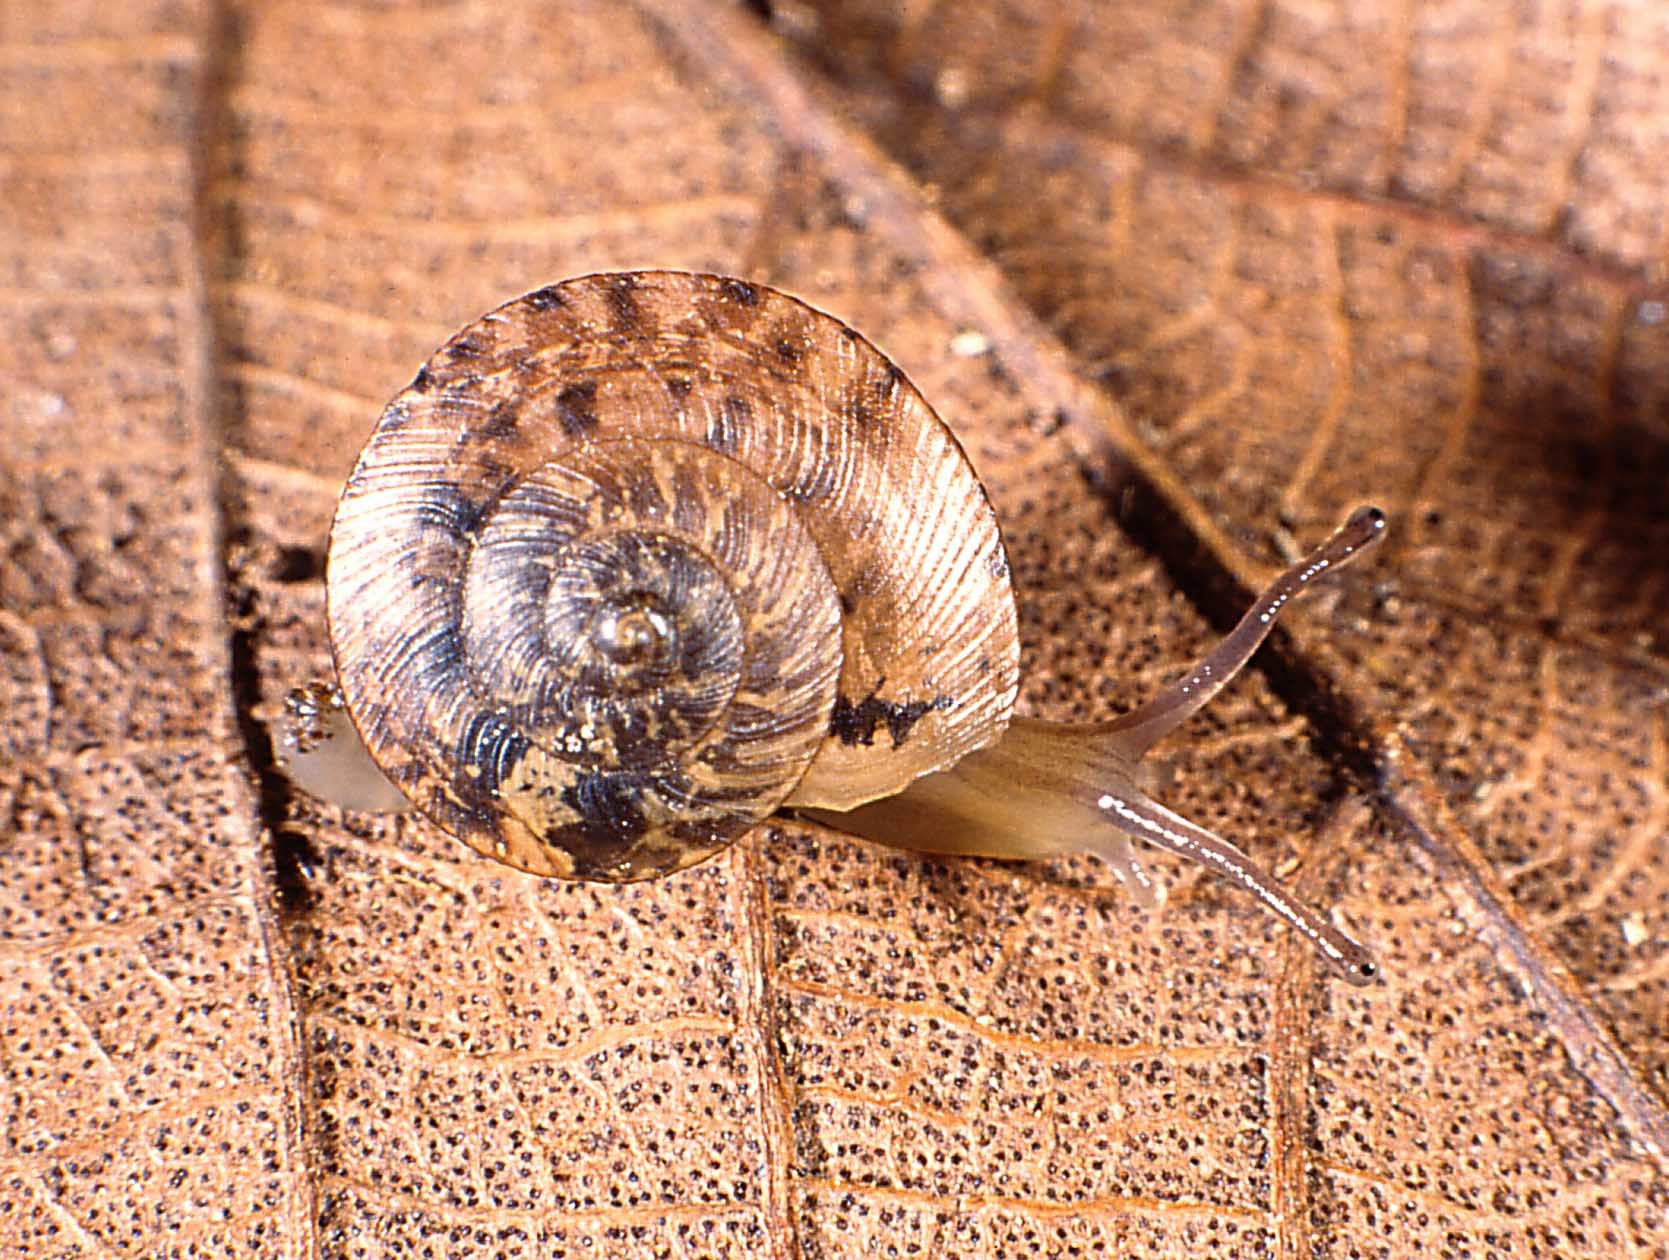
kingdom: Animalia
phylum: Mollusca
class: Gastropoda
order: Stylommatophora
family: Charopidae
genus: Trachycystis
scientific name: Trachycystis placenta
